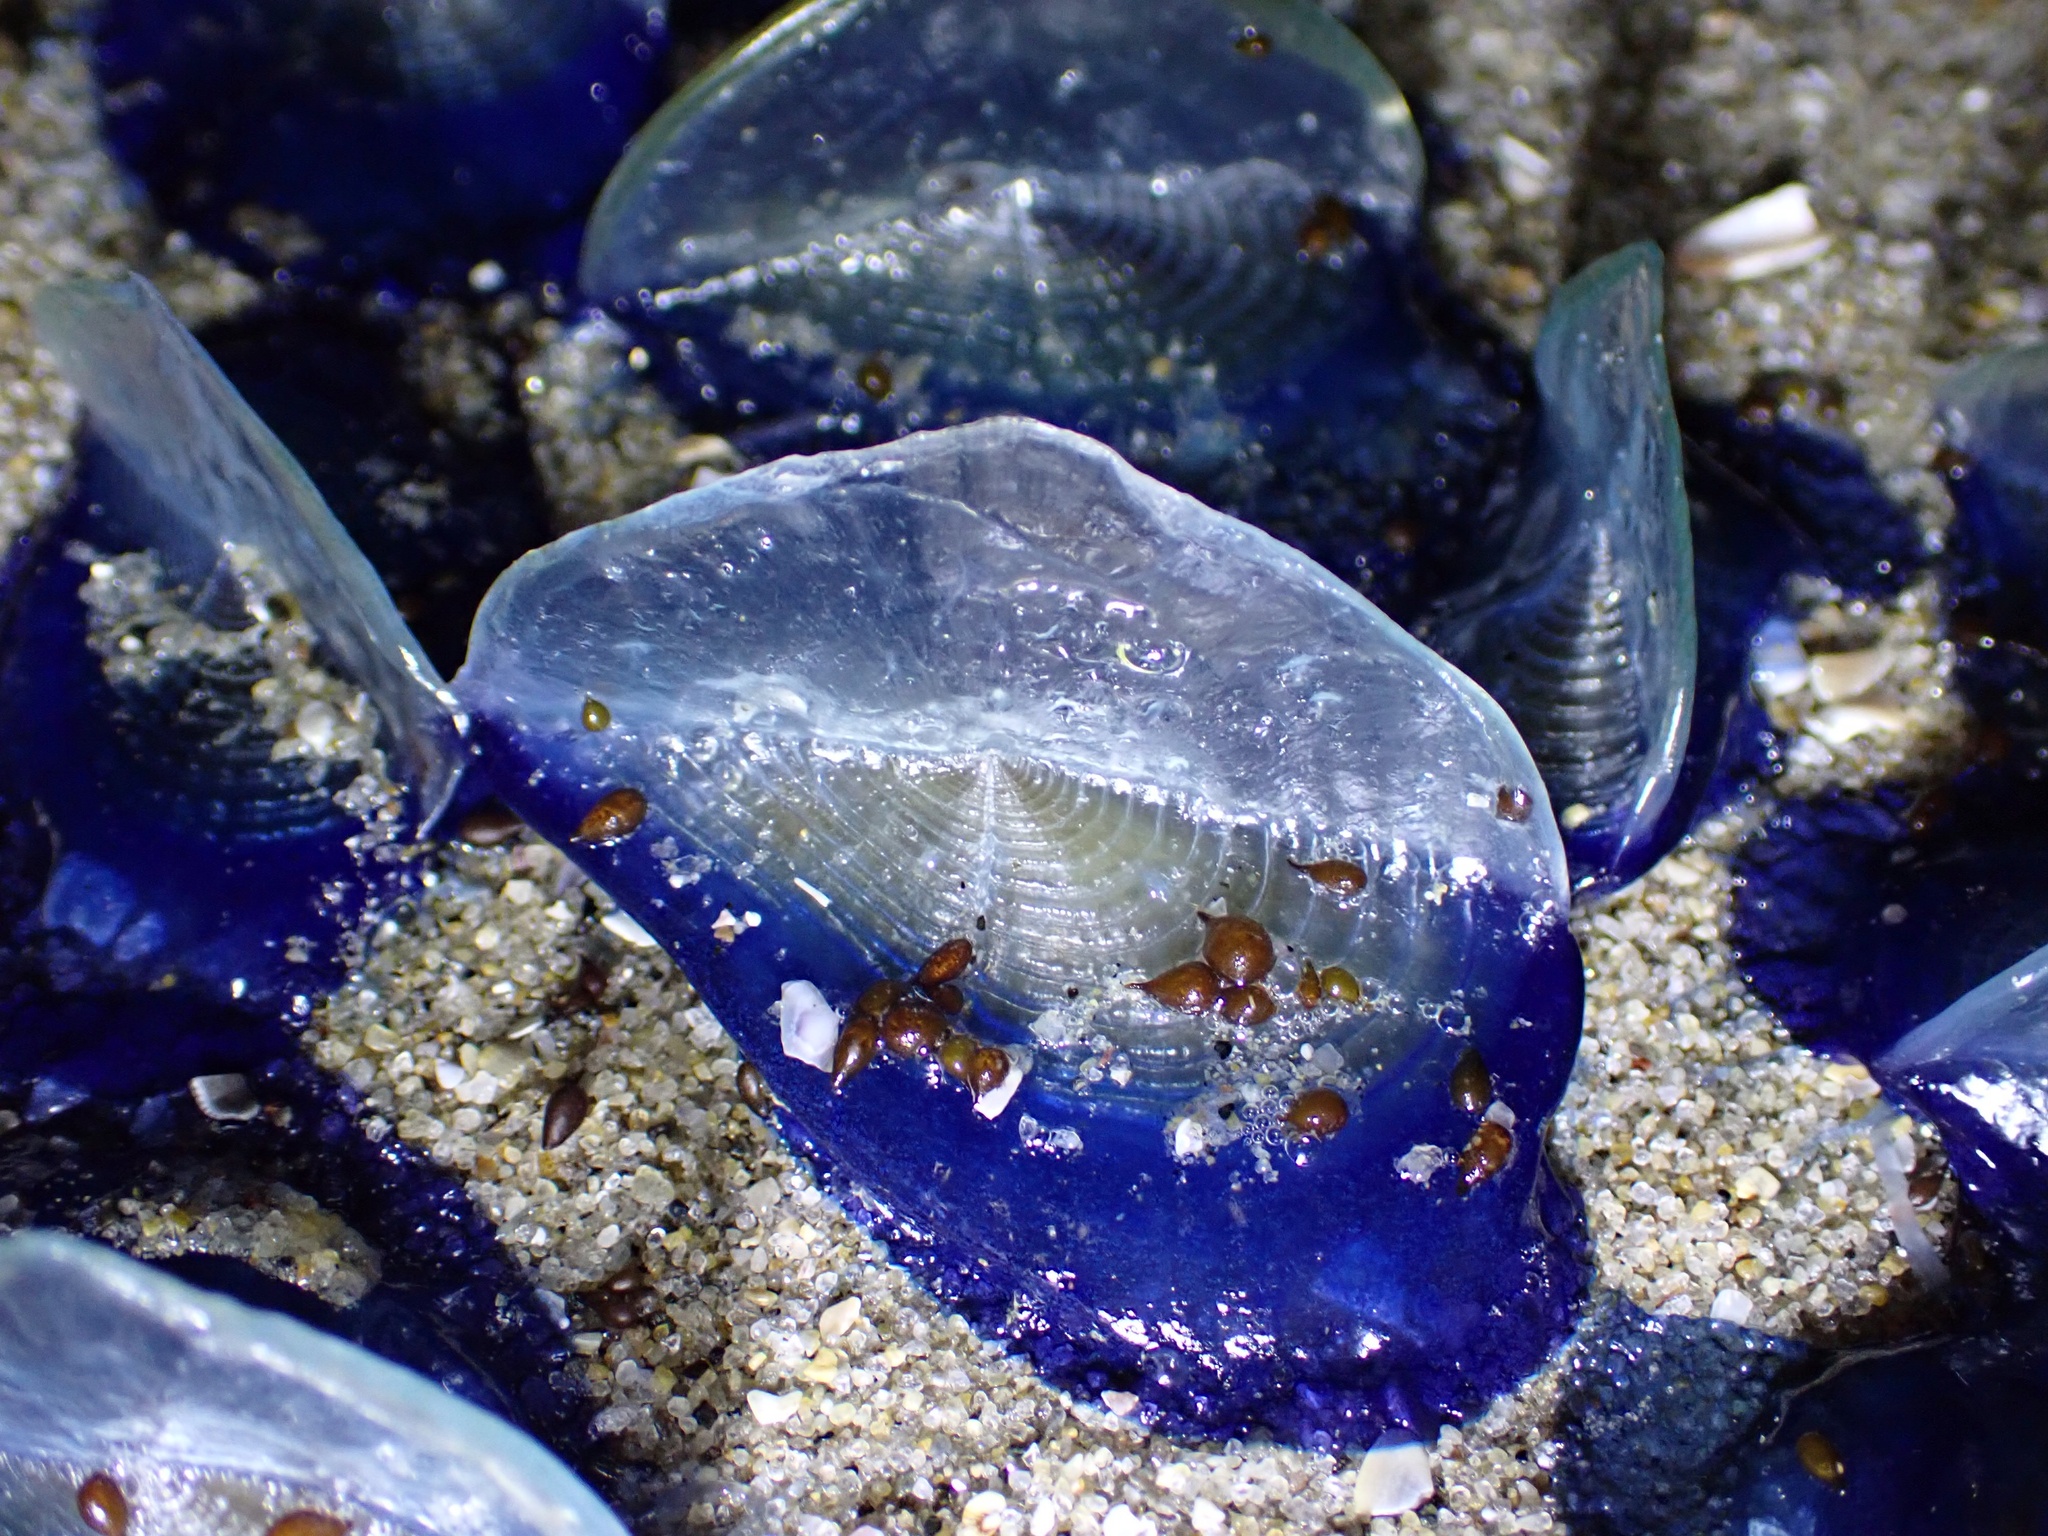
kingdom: Animalia
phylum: Cnidaria
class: Hydrozoa
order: Anthoathecata
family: Porpitidae
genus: Velella
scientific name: Velella velella
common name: By-the-wind-sailor
